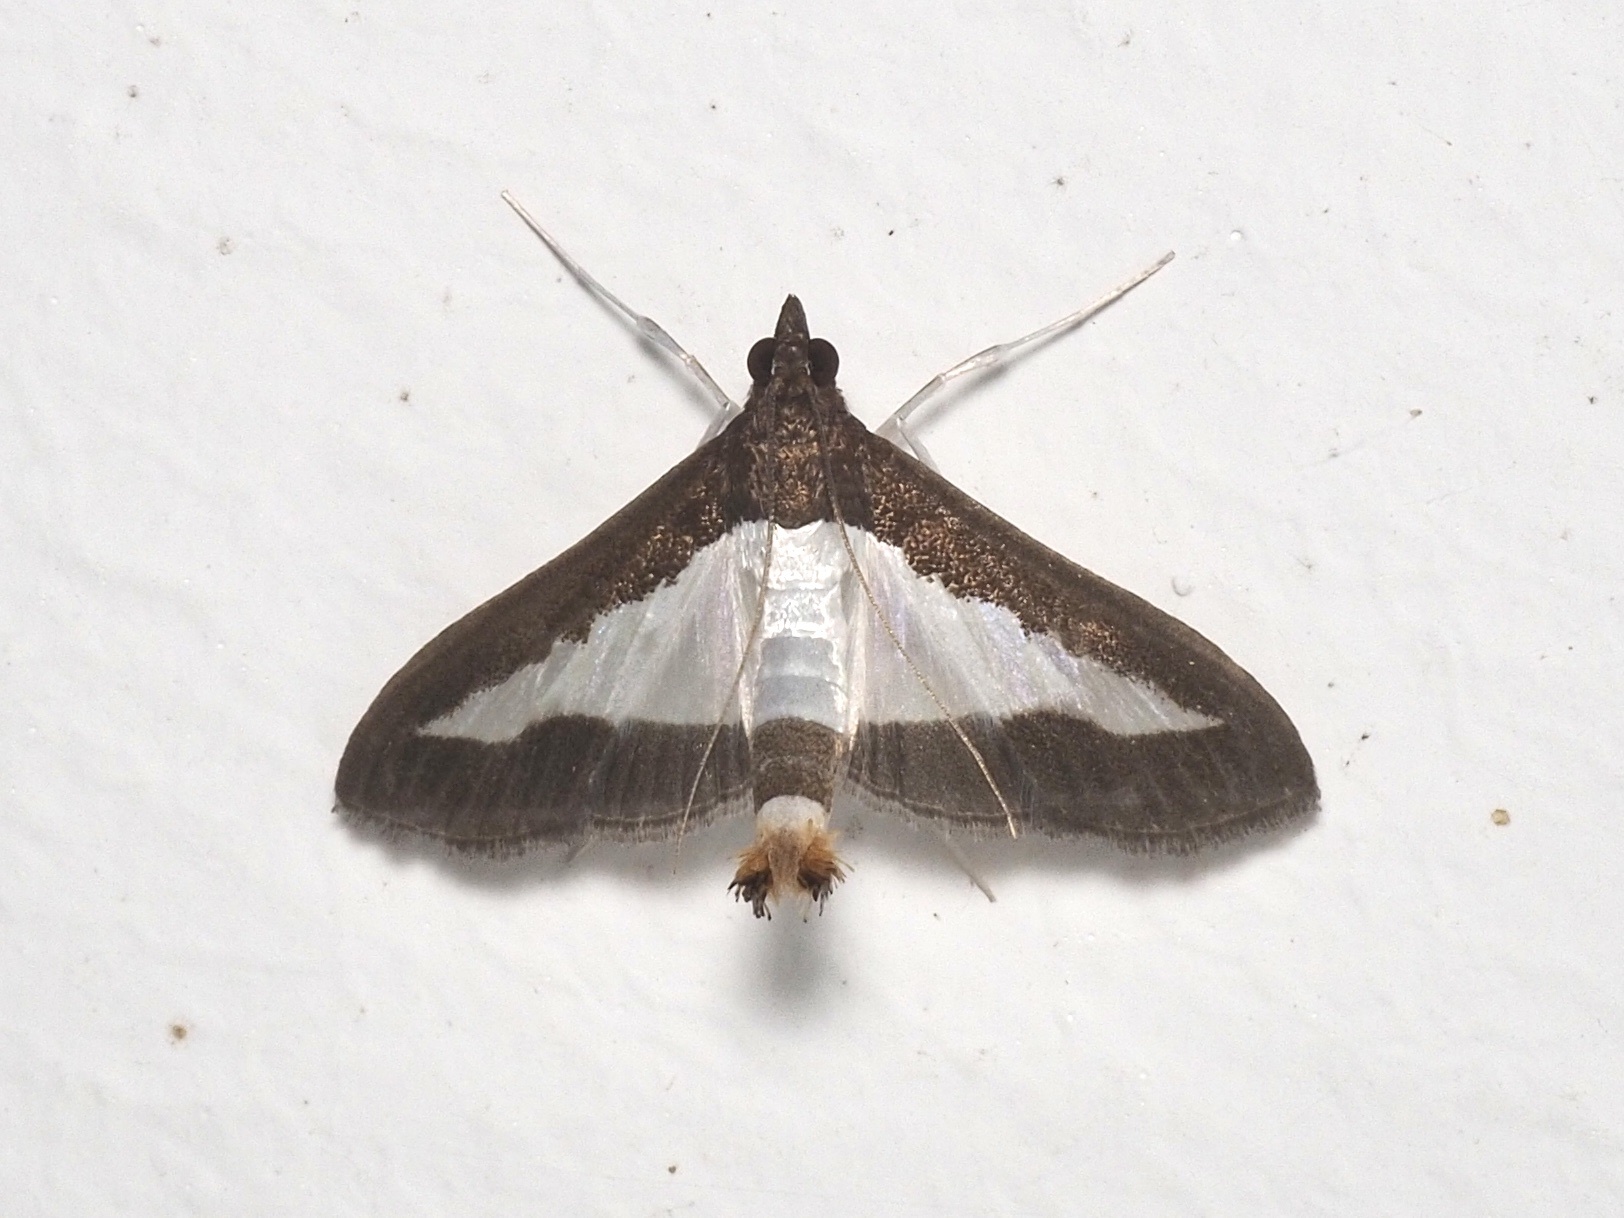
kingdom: Animalia
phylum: Arthropoda
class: Insecta
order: Lepidoptera
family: Crambidae
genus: Diaphania
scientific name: Diaphania indica
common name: Cucumber moth
